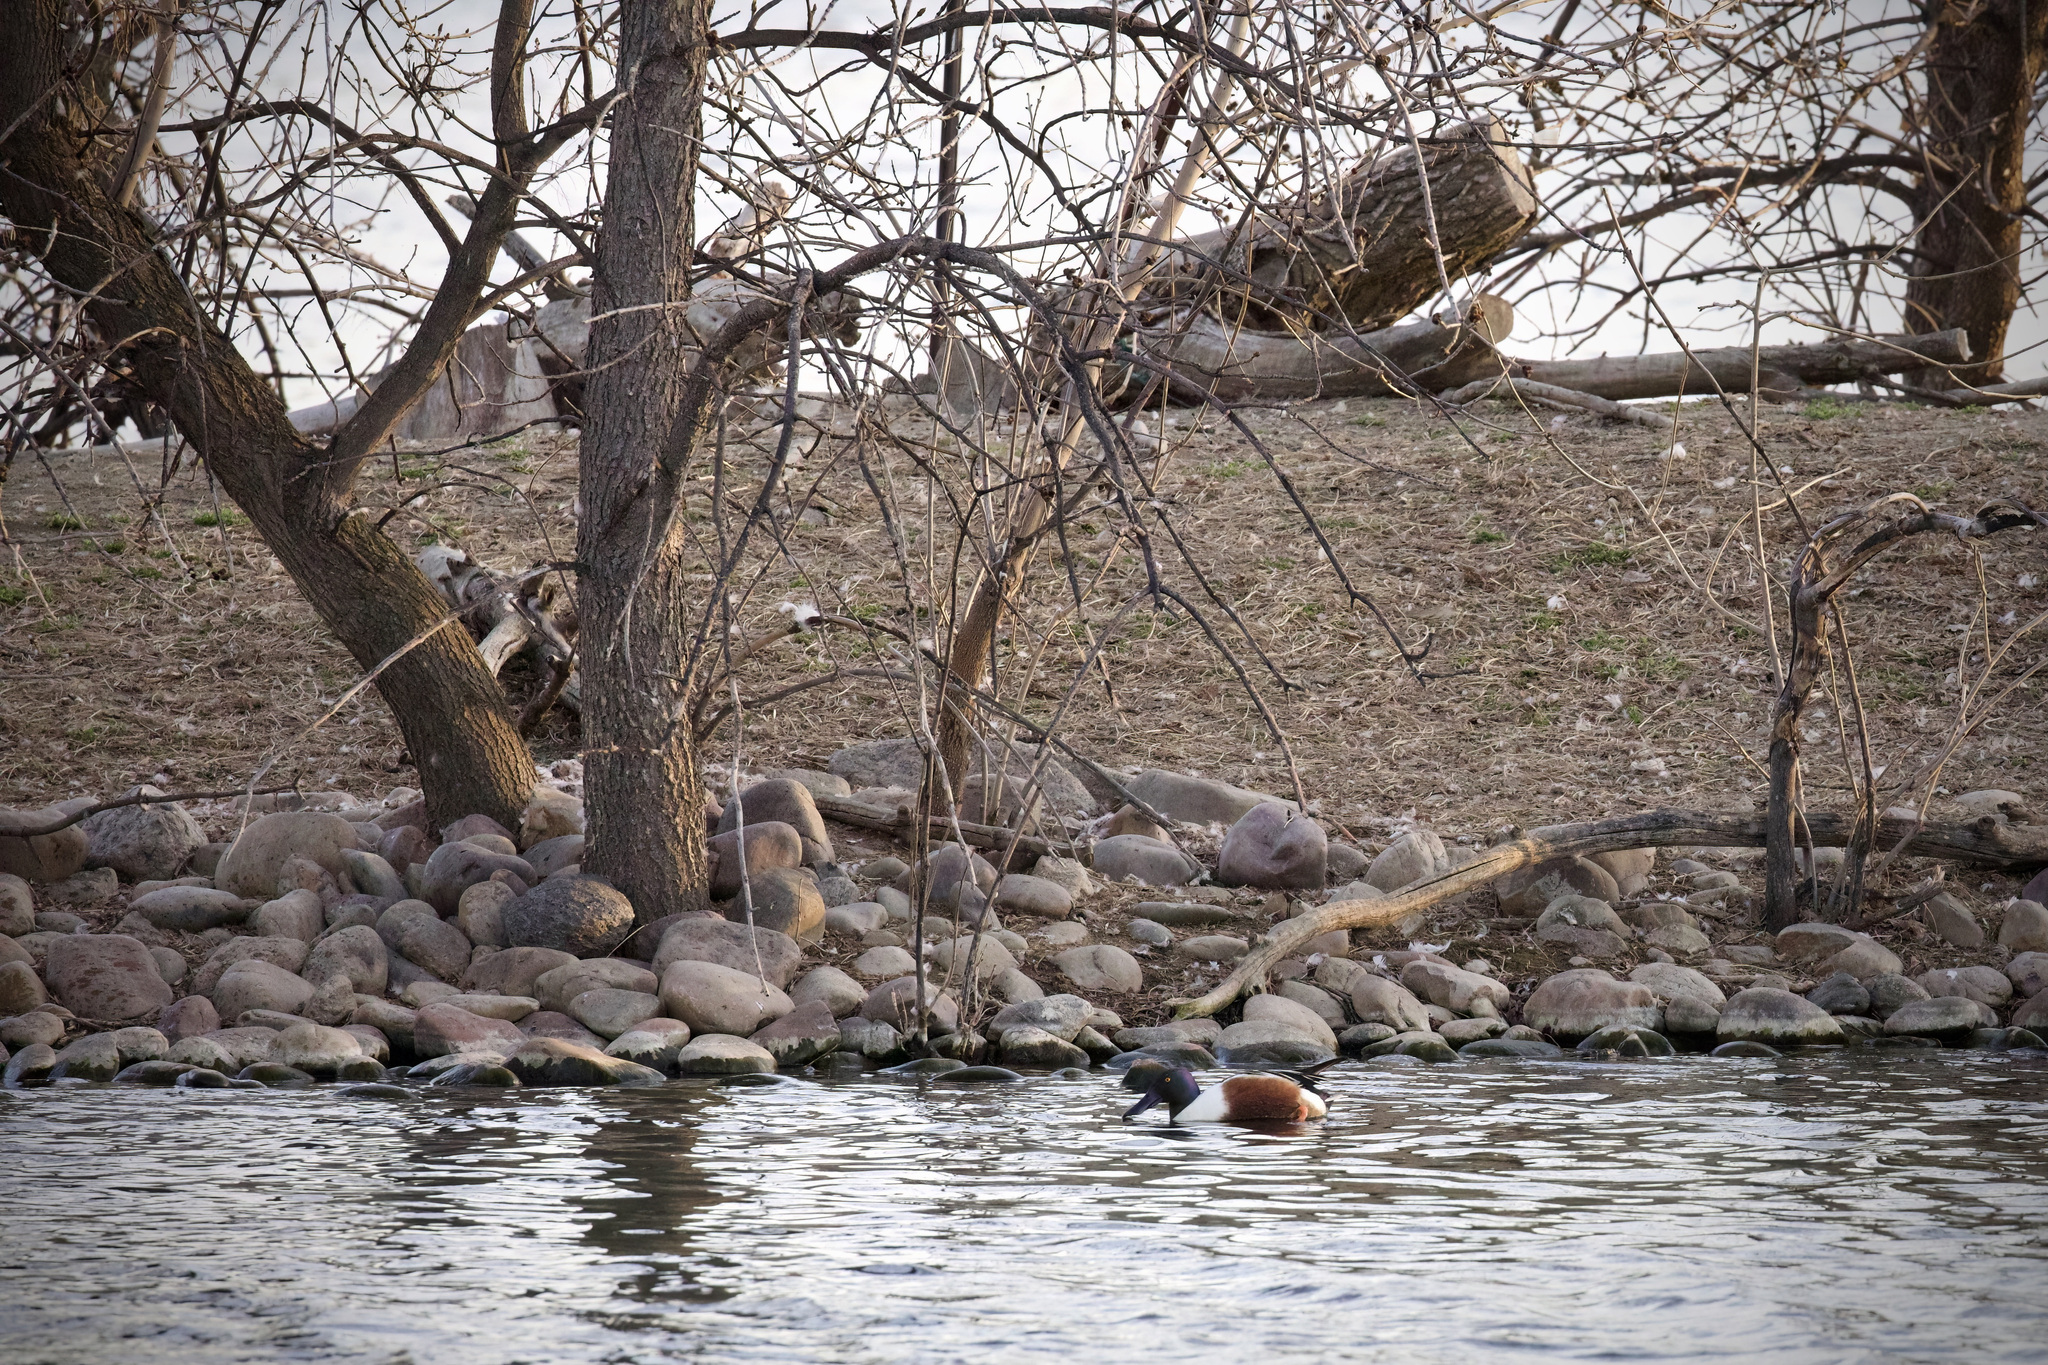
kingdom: Animalia
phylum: Chordata
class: Aves
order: Anseriformes
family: Anatidae
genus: Spatula
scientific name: Spatula clypeata
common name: Northern shoveler
